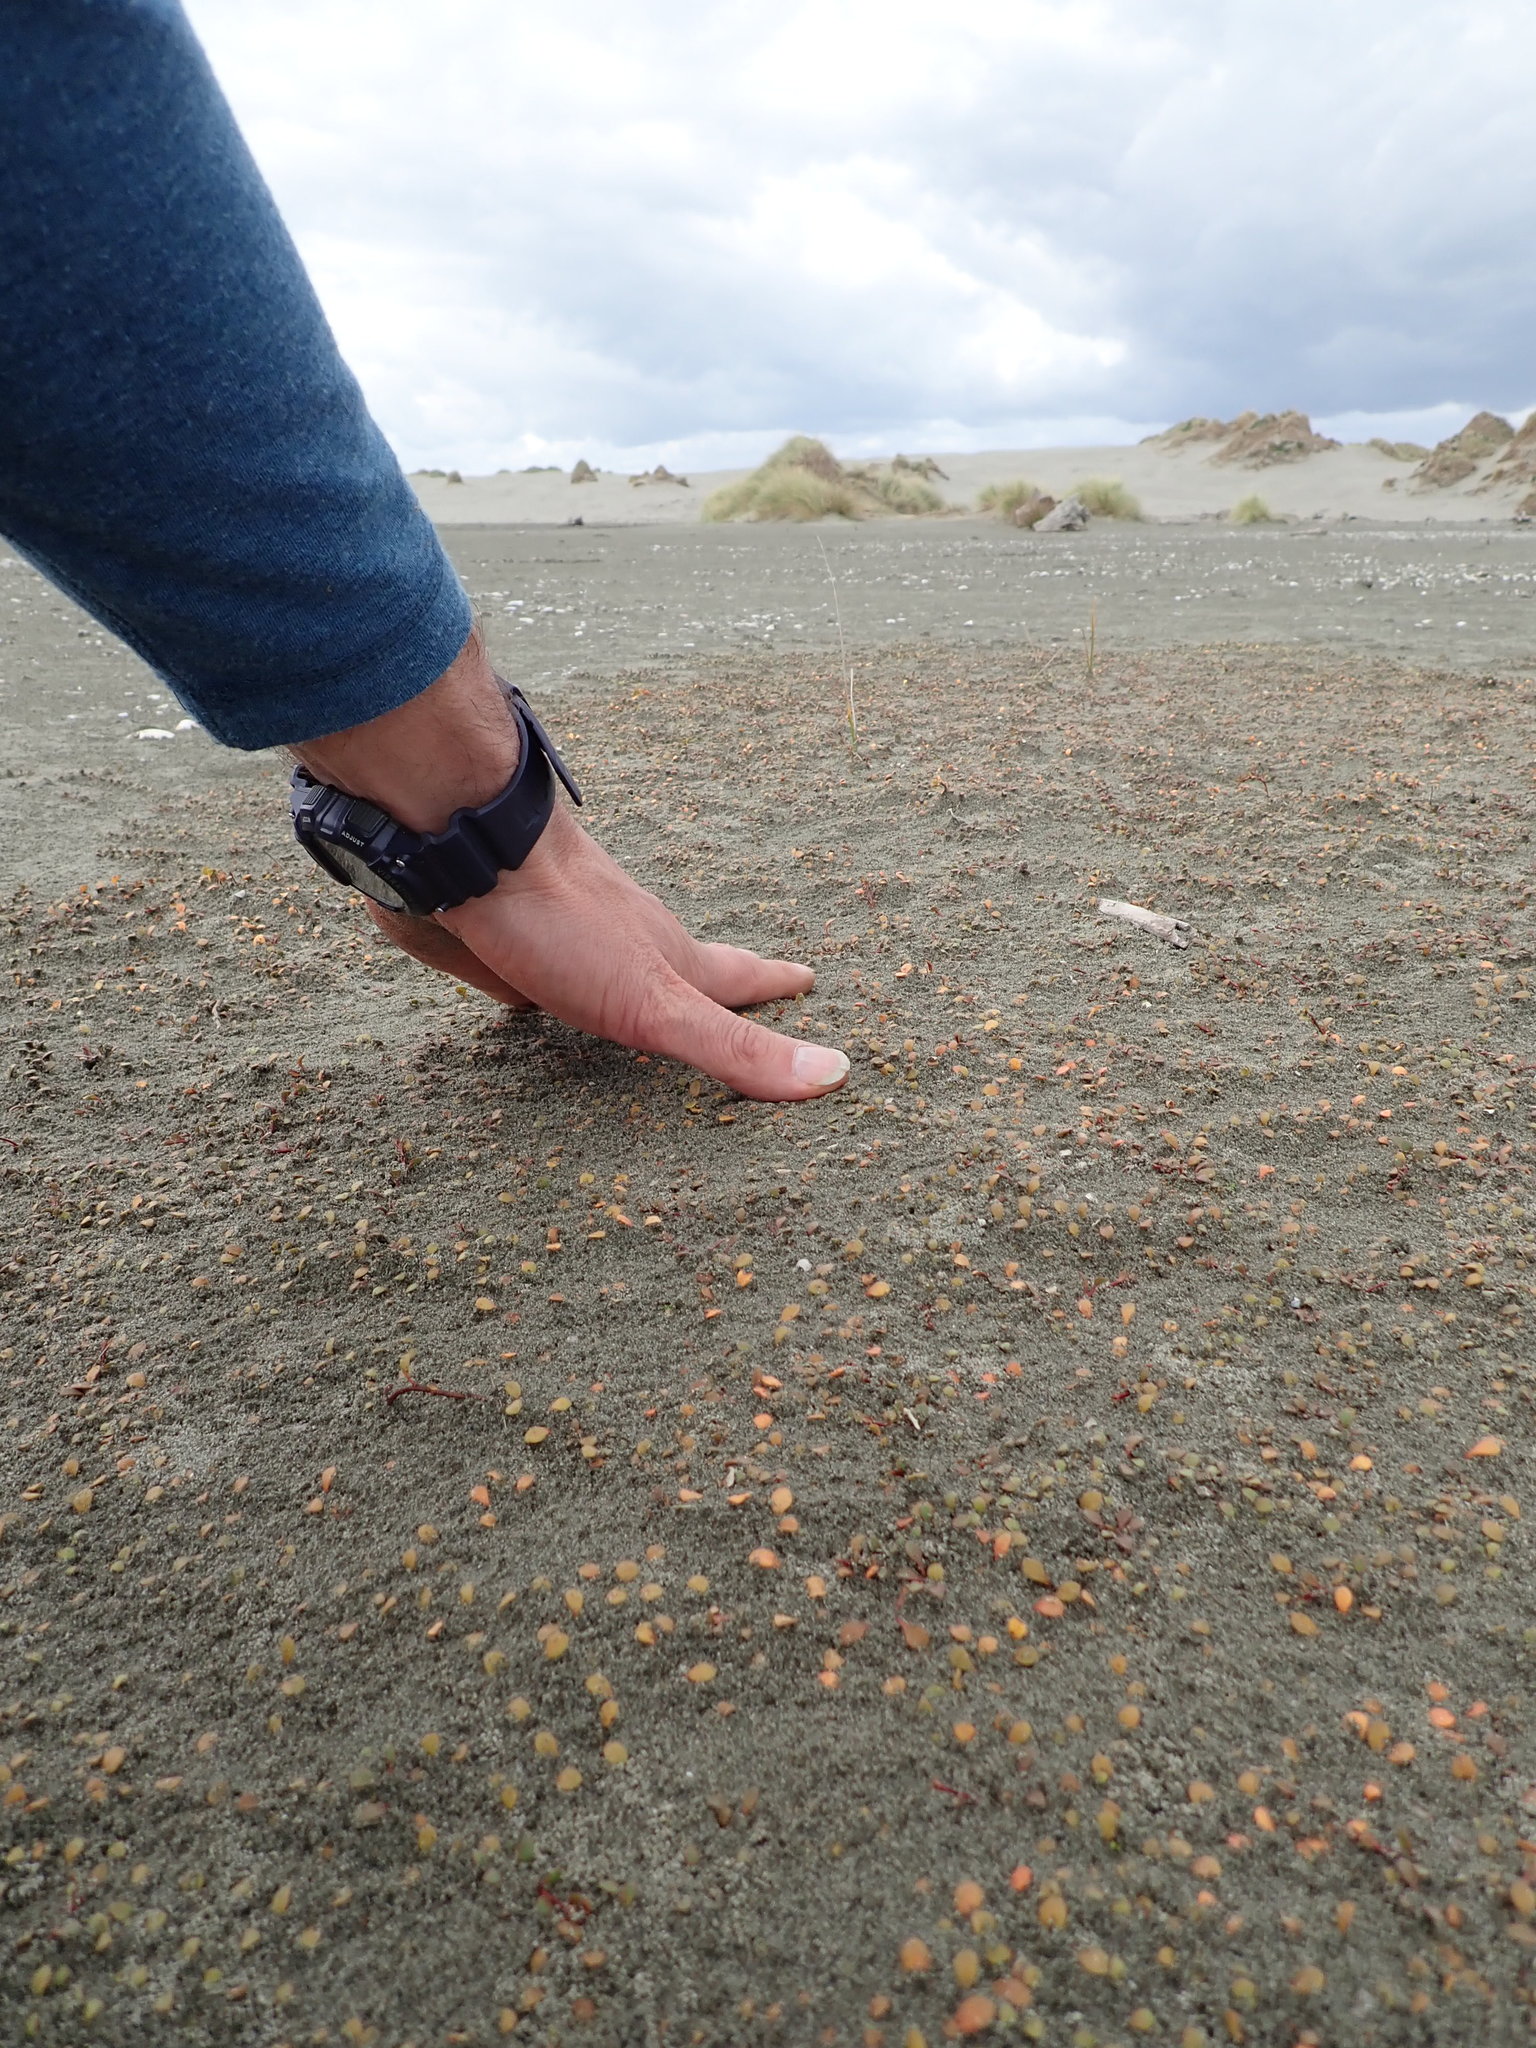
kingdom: Animalia
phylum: Arthropoda
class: Arachnida
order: Araneae
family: Lycosidae
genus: Anoteropsis
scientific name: Anoteropsis litoralis
